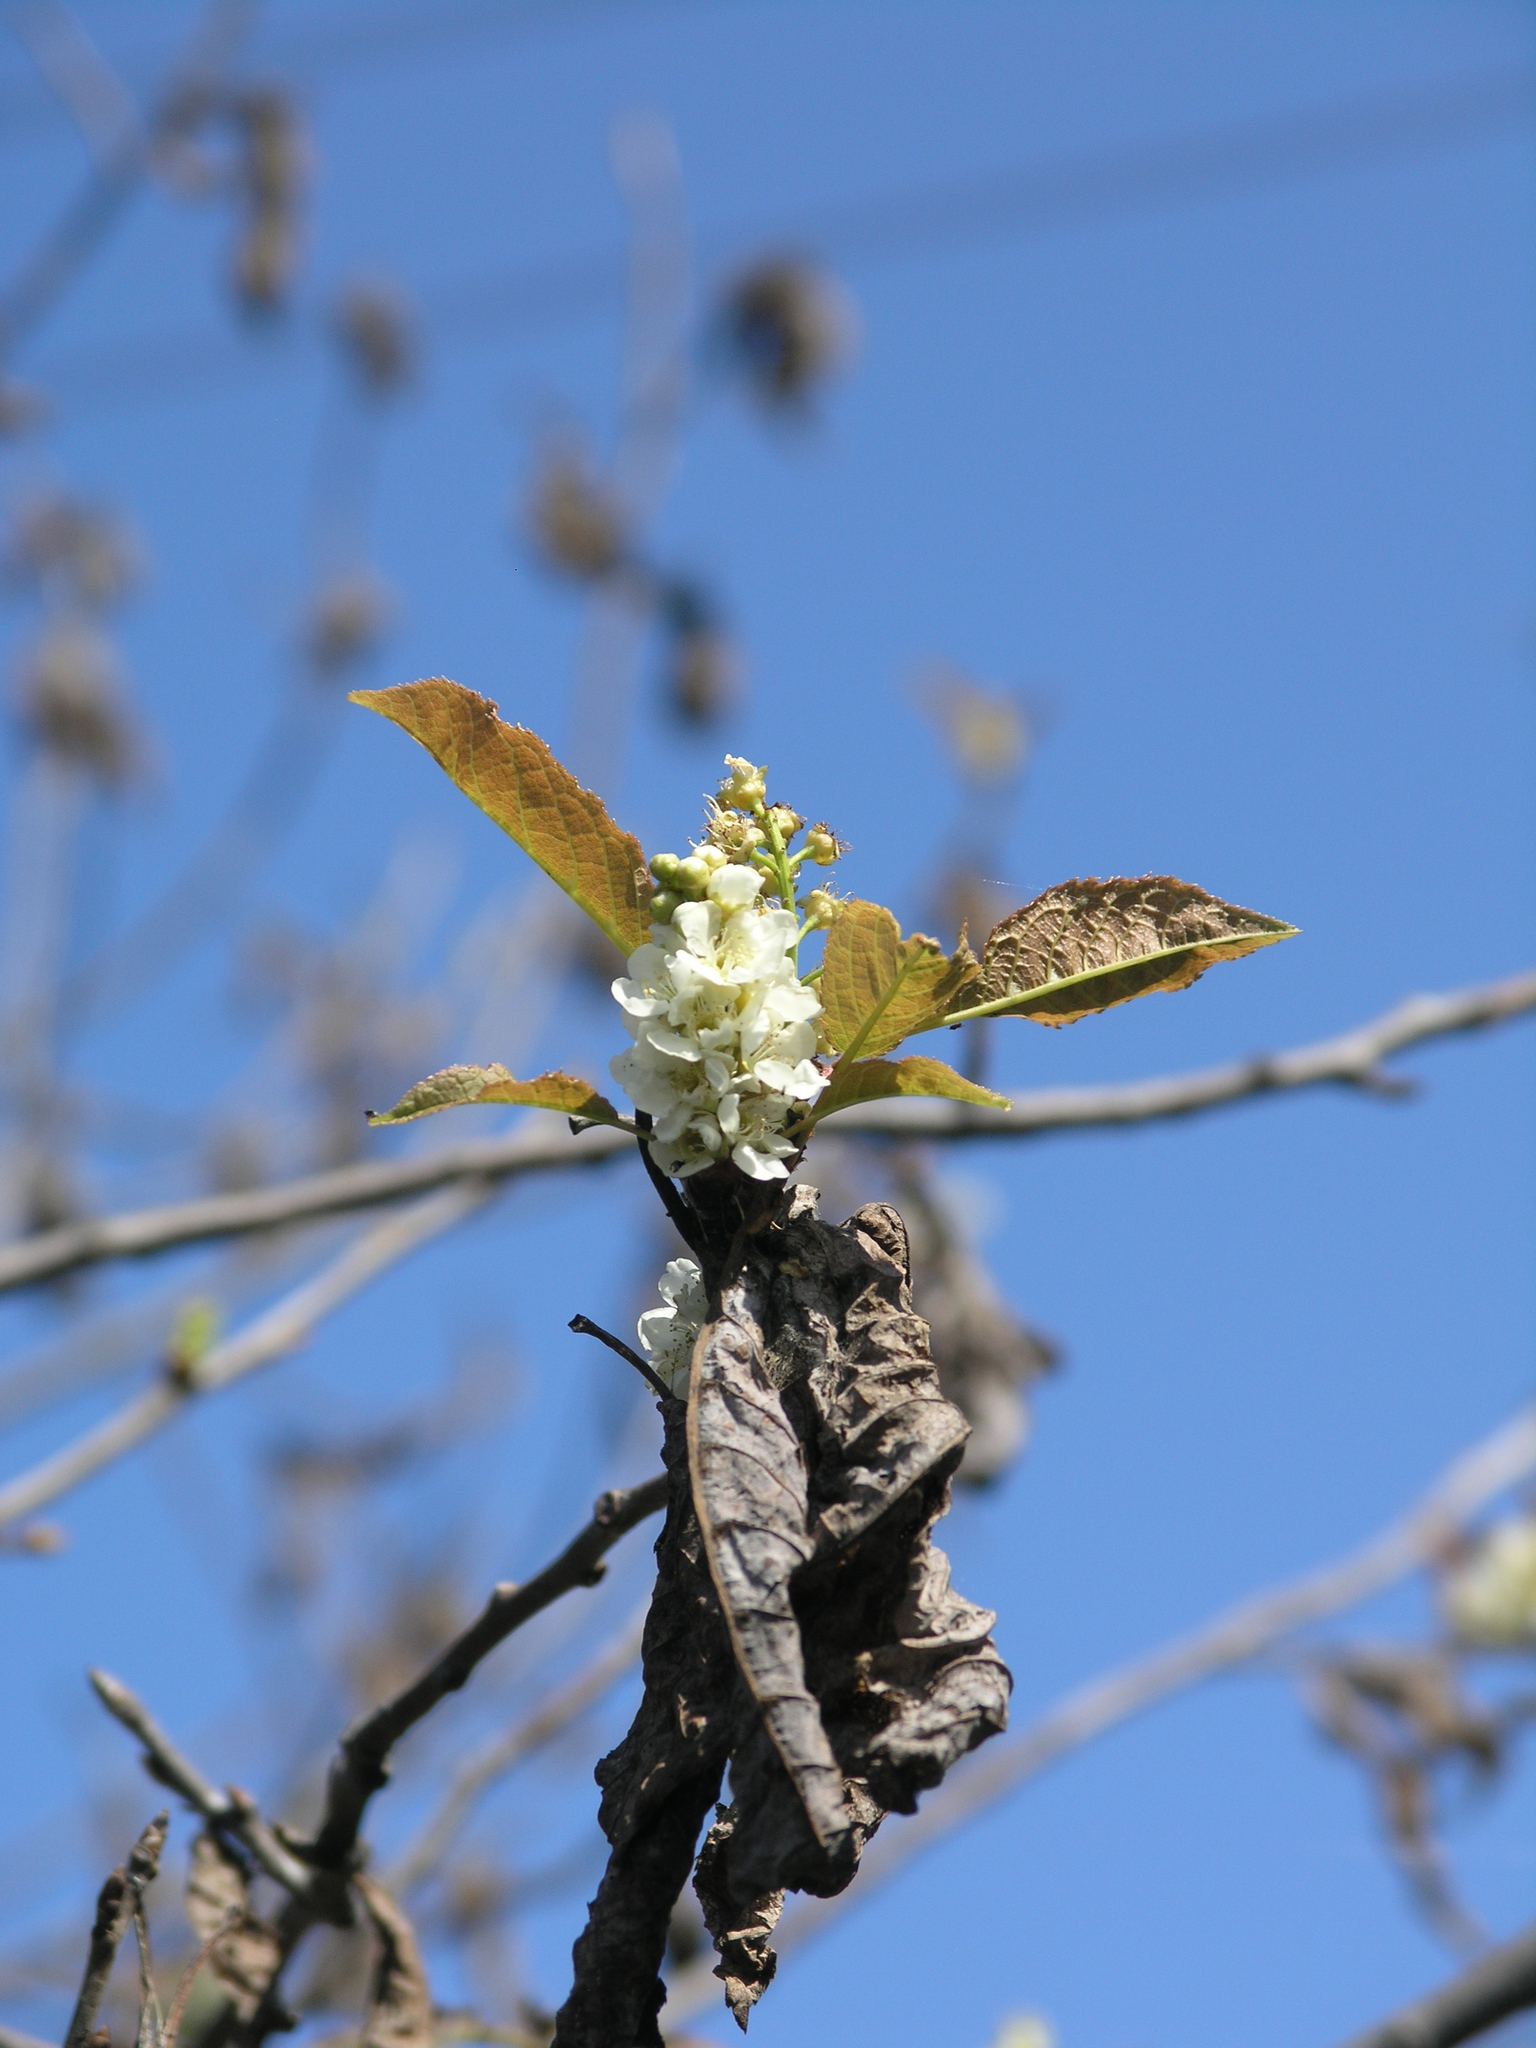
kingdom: Animalia
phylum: Arthropoda
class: Insecta
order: Lepidoptera
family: Pieridae
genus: Aporia
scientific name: Aporia crataegi
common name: Black-veined white
